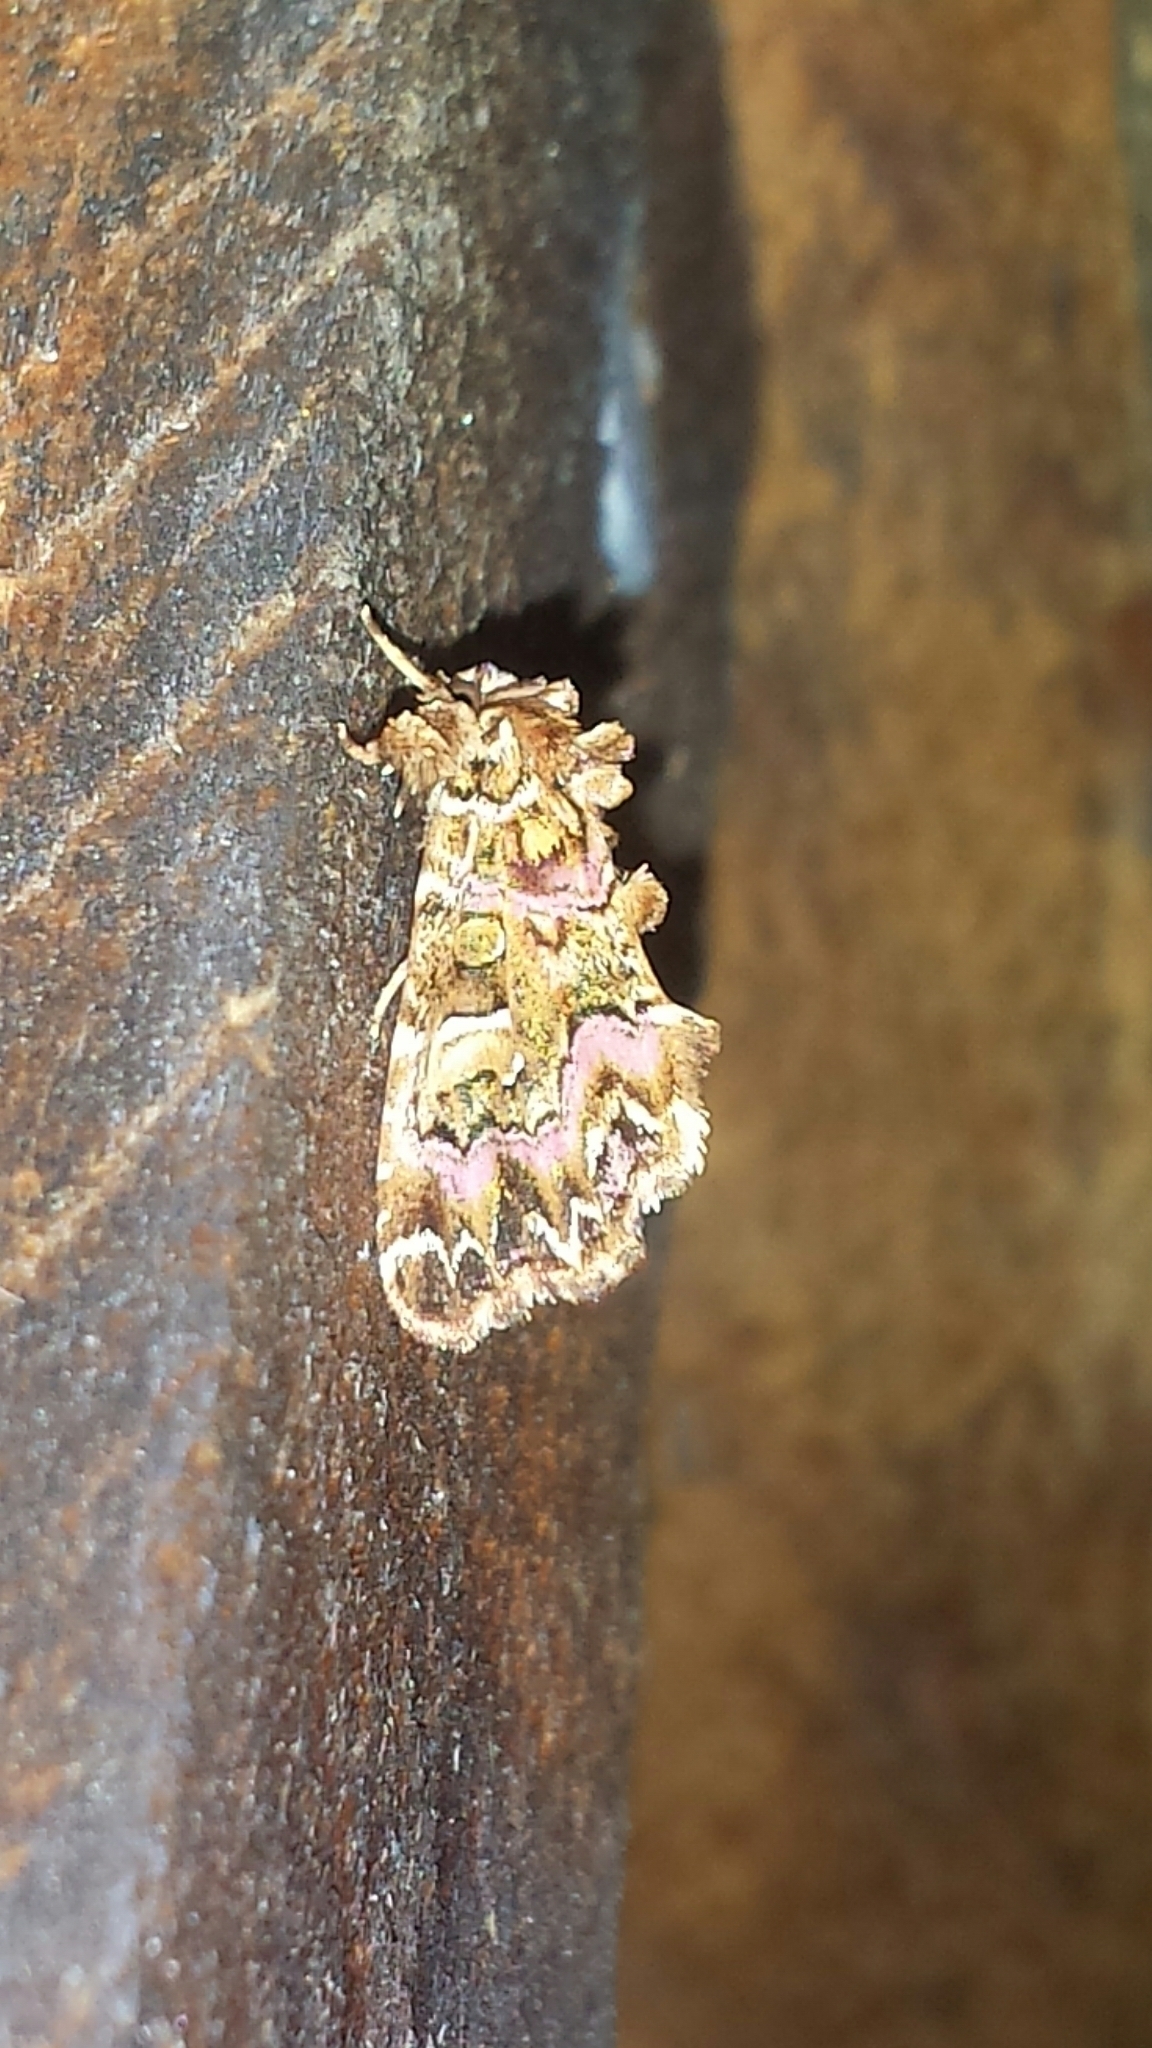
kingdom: Animalia
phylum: Arthropoda
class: Insecta
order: Lepidoptera
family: Noctuidae
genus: Callopistria
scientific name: Callopistria mollissima
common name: Pink-shaded fern moth
